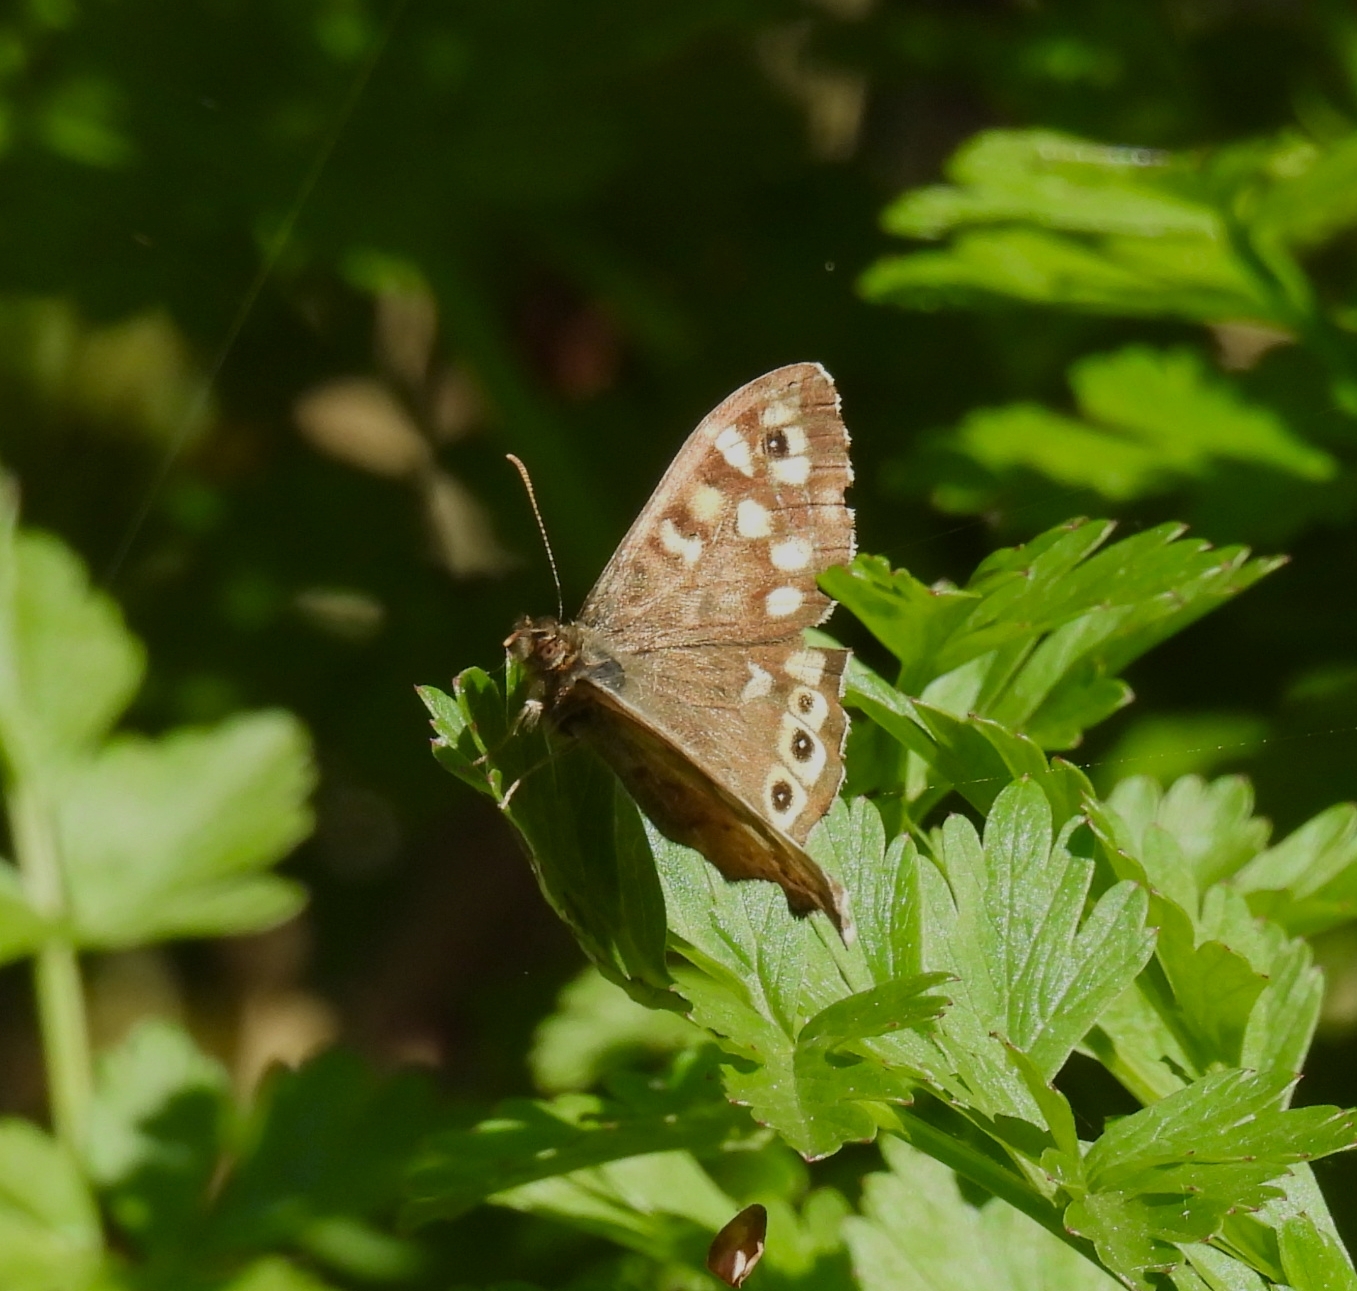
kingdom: Animalia
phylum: Arthropoda
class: Insecta
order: Lepidoptera
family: Nymphalidae
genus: Pararge
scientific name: Pararge aegeria
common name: Speckled wood
